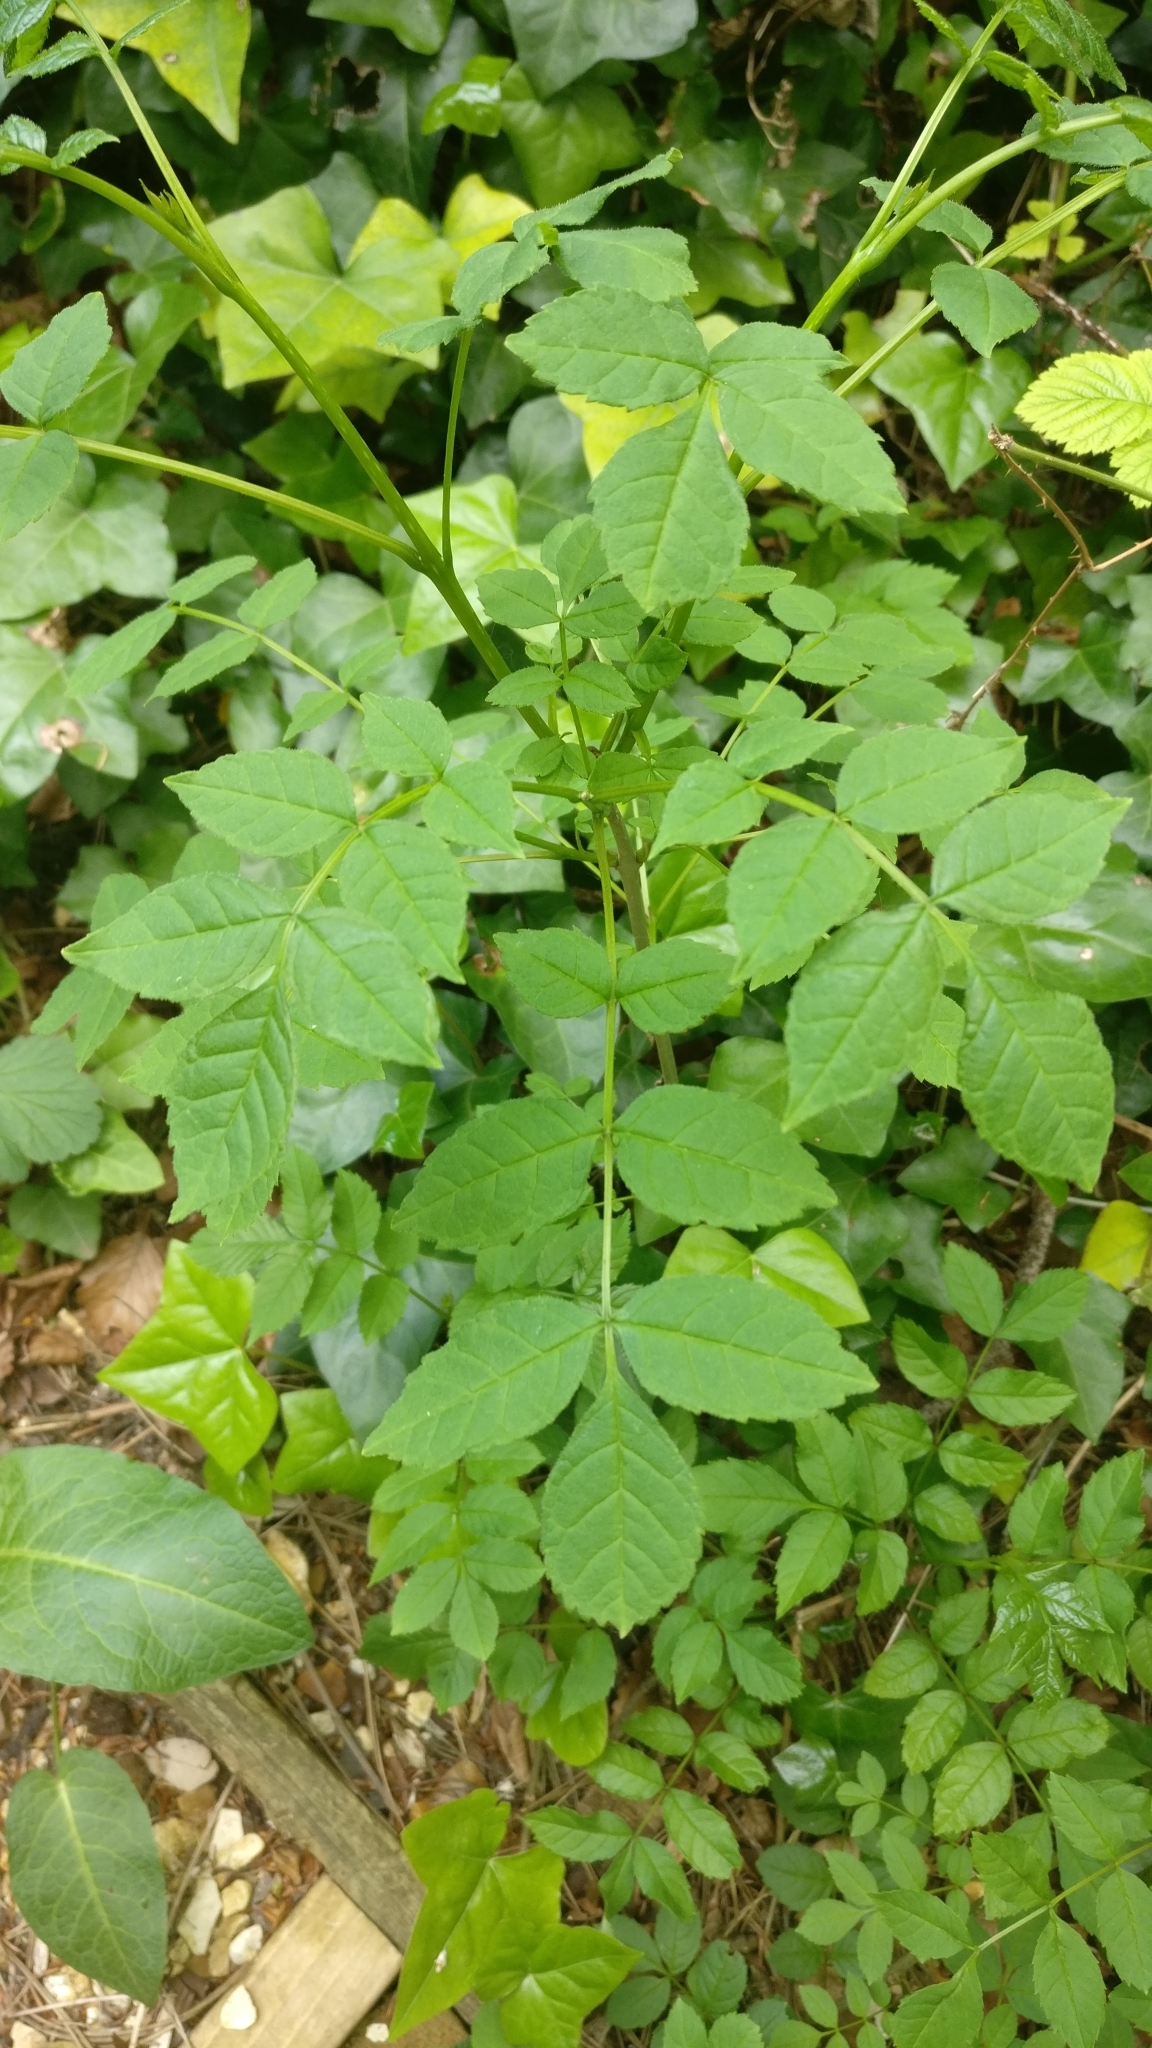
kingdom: Plantae
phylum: Tracheophyta
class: Magnoliopsida
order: Lamiales
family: Oleaceae
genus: Fraxinus
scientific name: Fraxinus excelsior
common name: European ash
